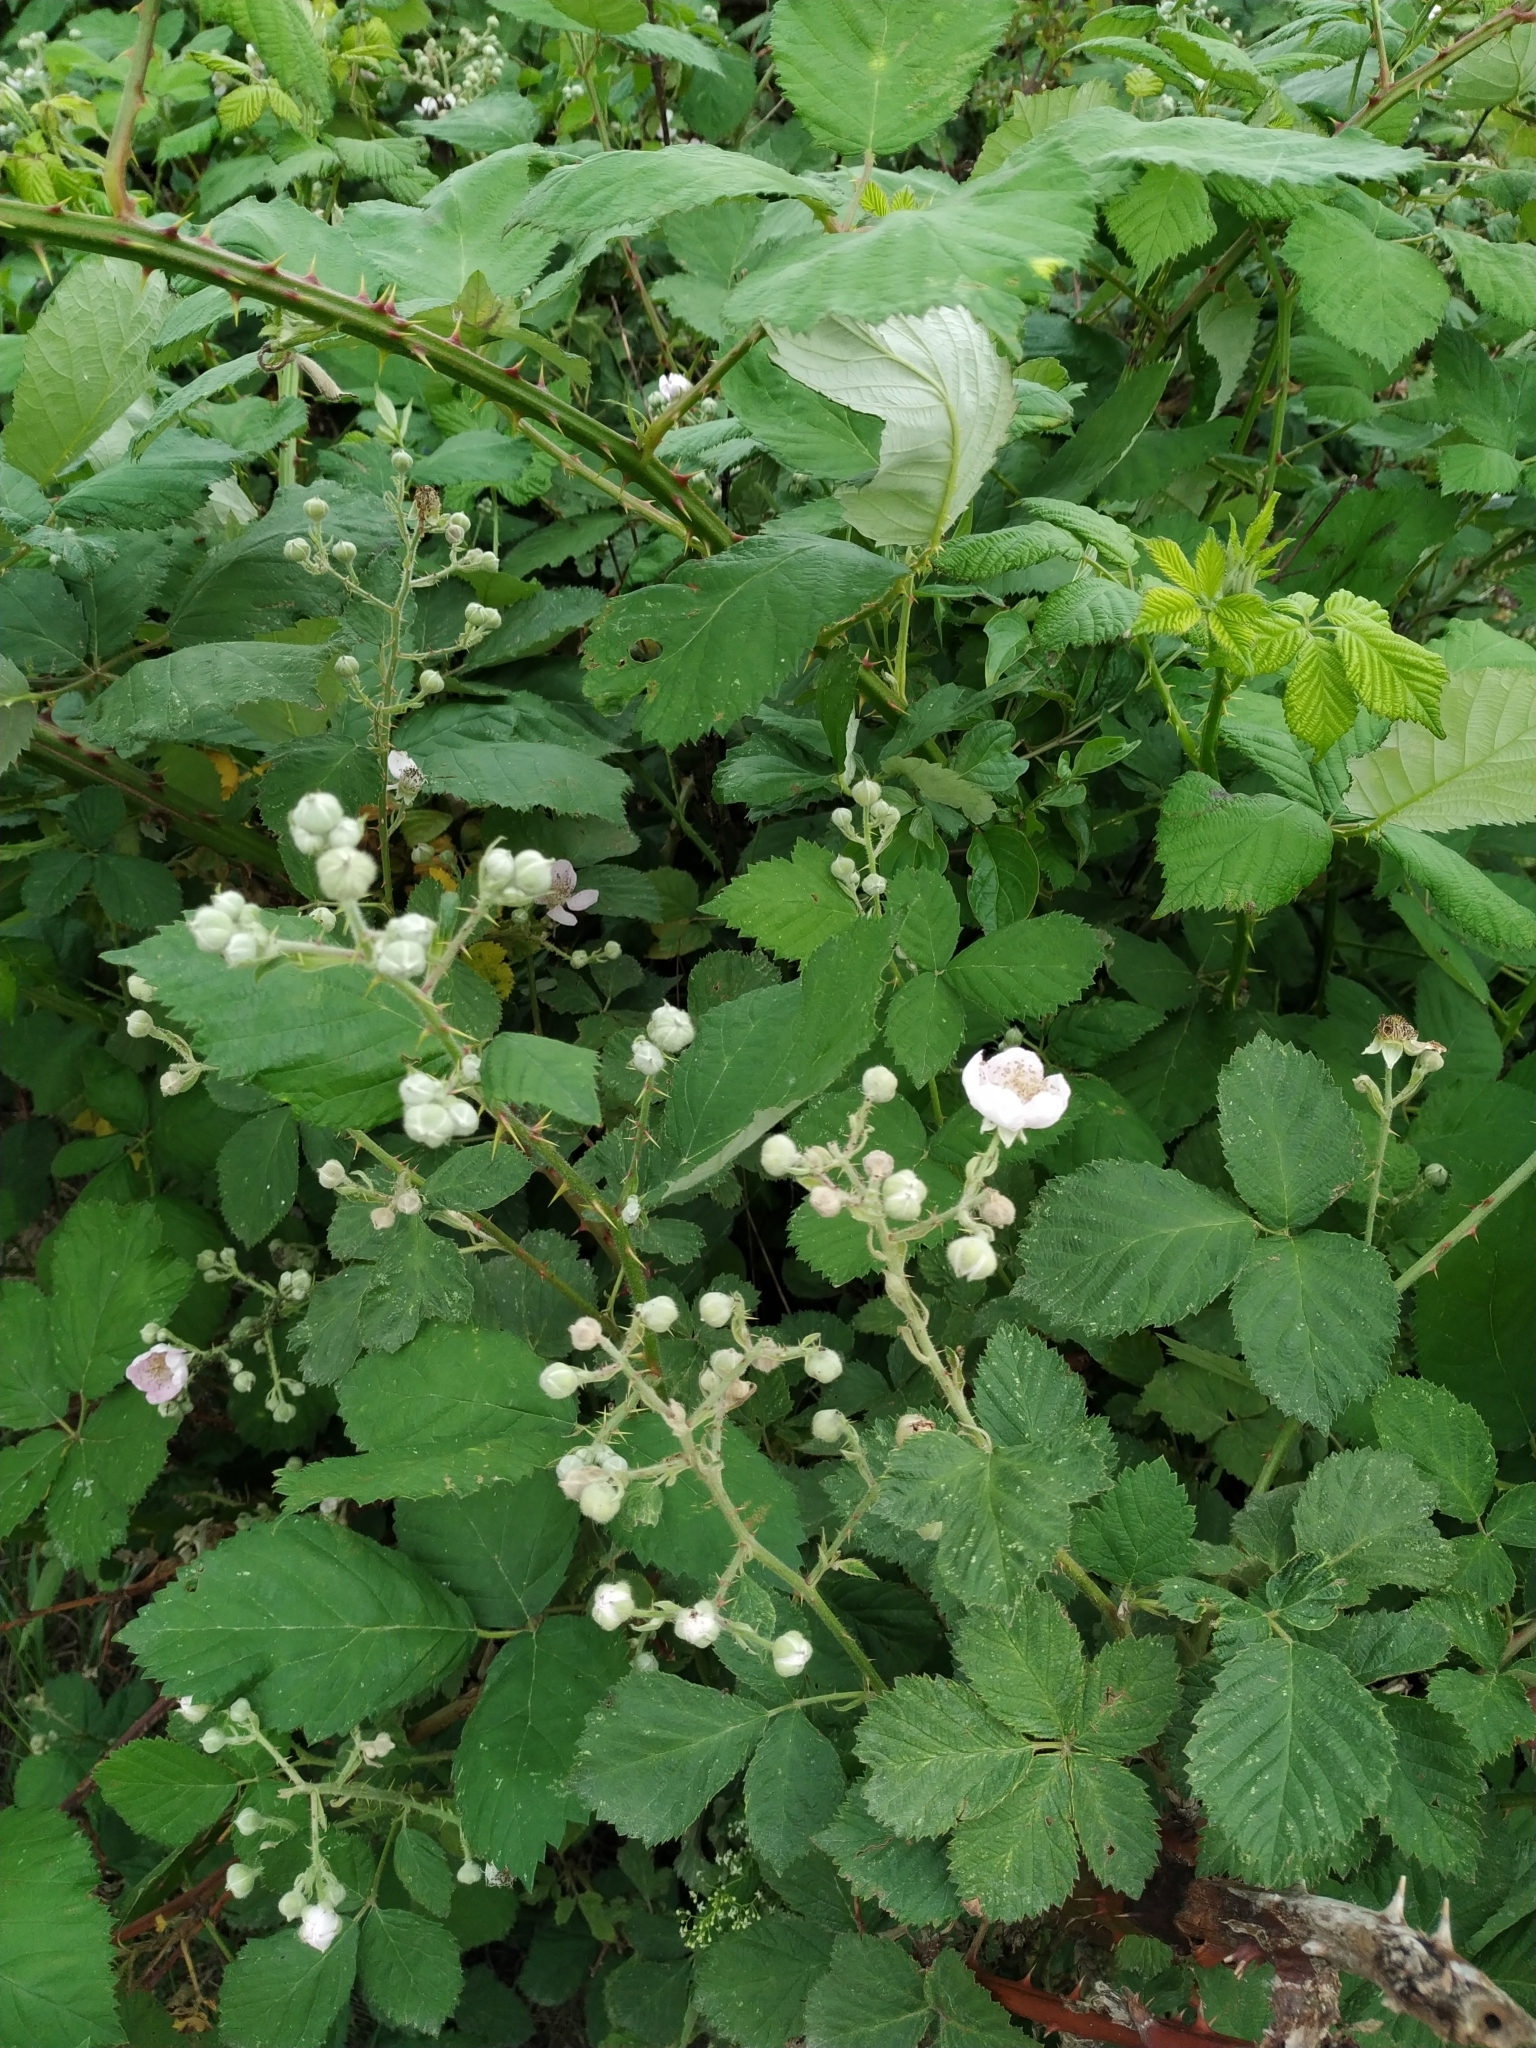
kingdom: Plantae
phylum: Tracheophyta
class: Magnoliopsida
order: Rosales
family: Rosaceae
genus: Rubus
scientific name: Rubus armeniacus
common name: Himalayan blackberry
